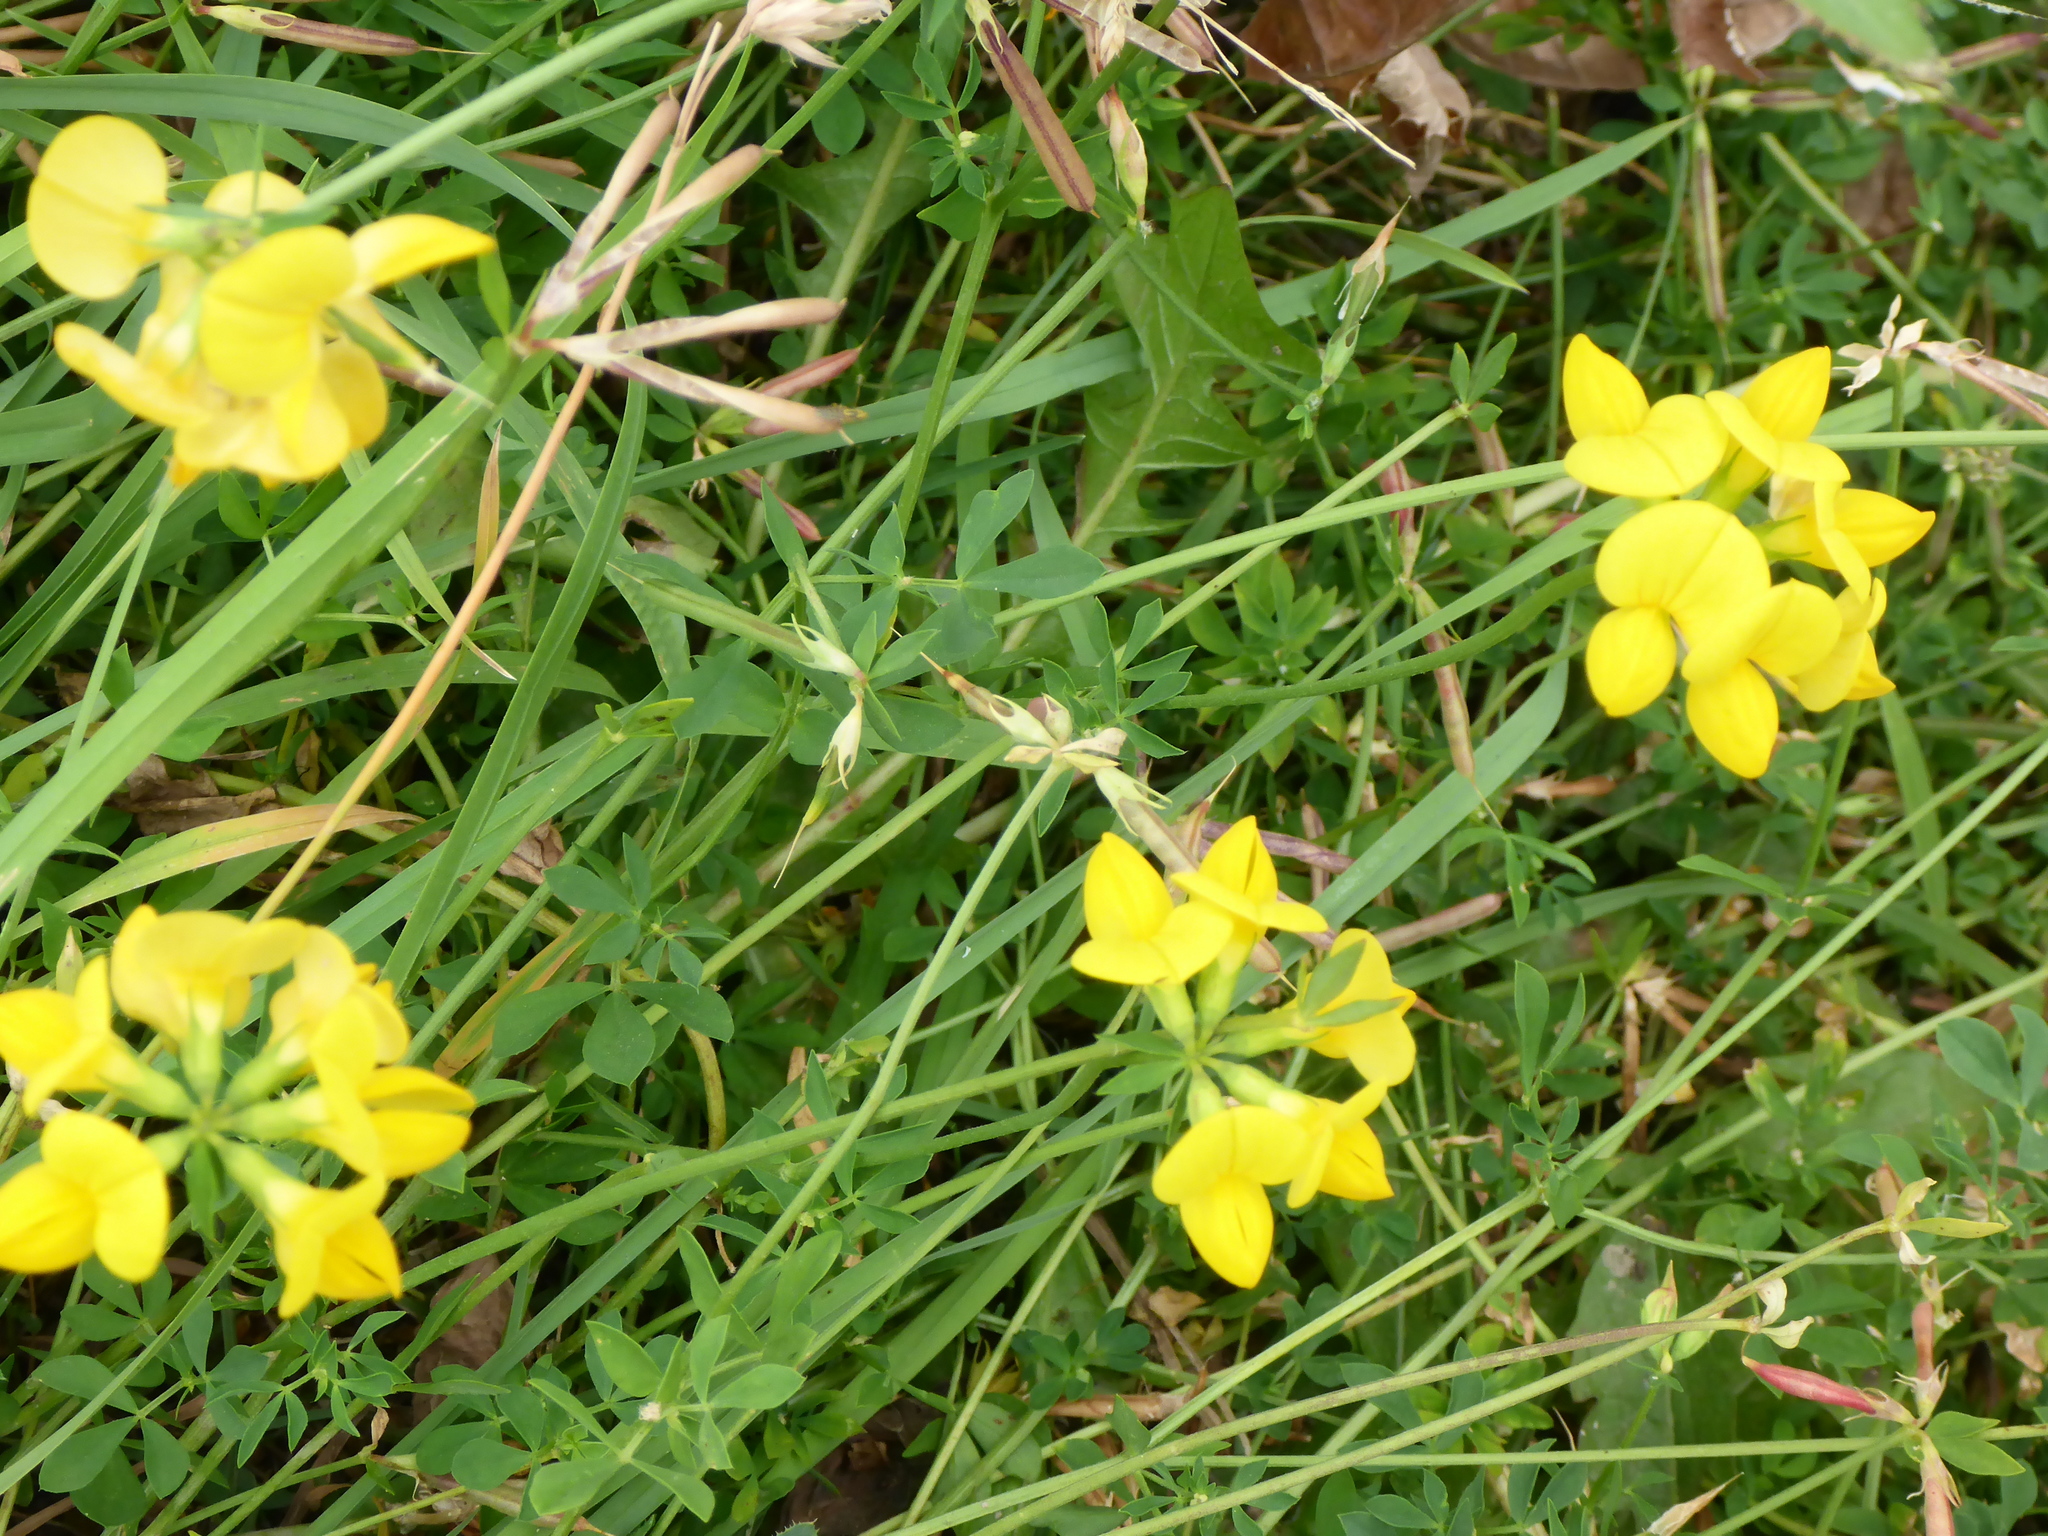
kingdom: Plantae
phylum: Tracheophyta
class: Magnoliopsida
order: Fabales
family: Fabaceae
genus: Lotus
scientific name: Lotus corniculatus
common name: Common bird's-foot-trefoil
